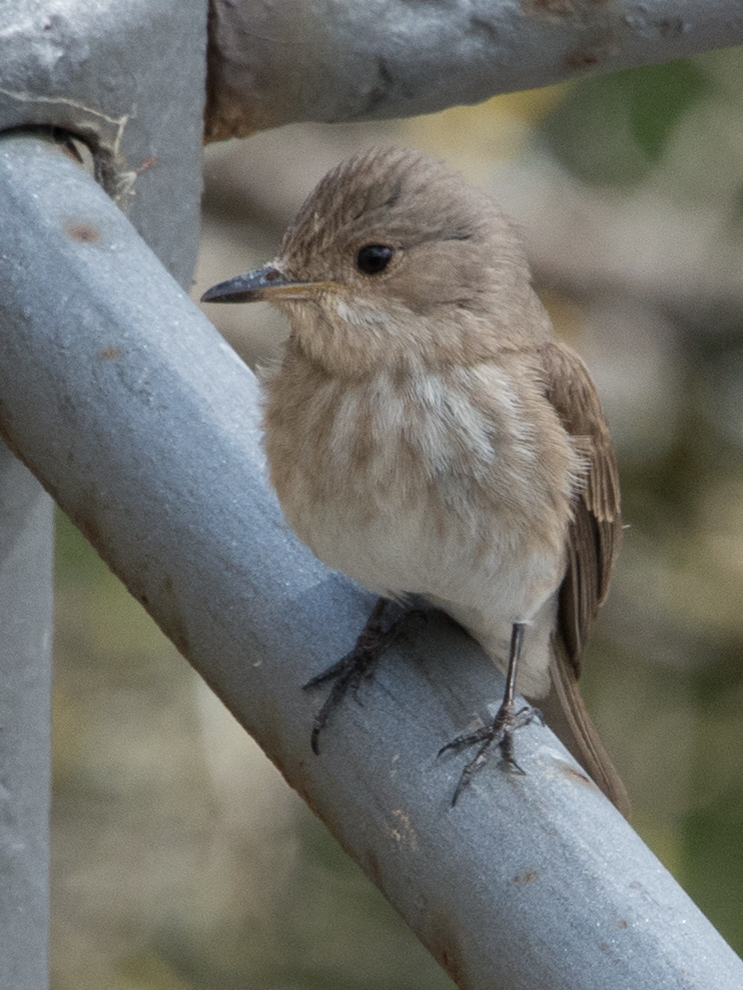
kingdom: Animalia
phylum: Chordata
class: Aves
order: Passeriformes
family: Muscicapidae
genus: Muscicapa
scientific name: Muscicapa striata
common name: Spotted flycatcher
